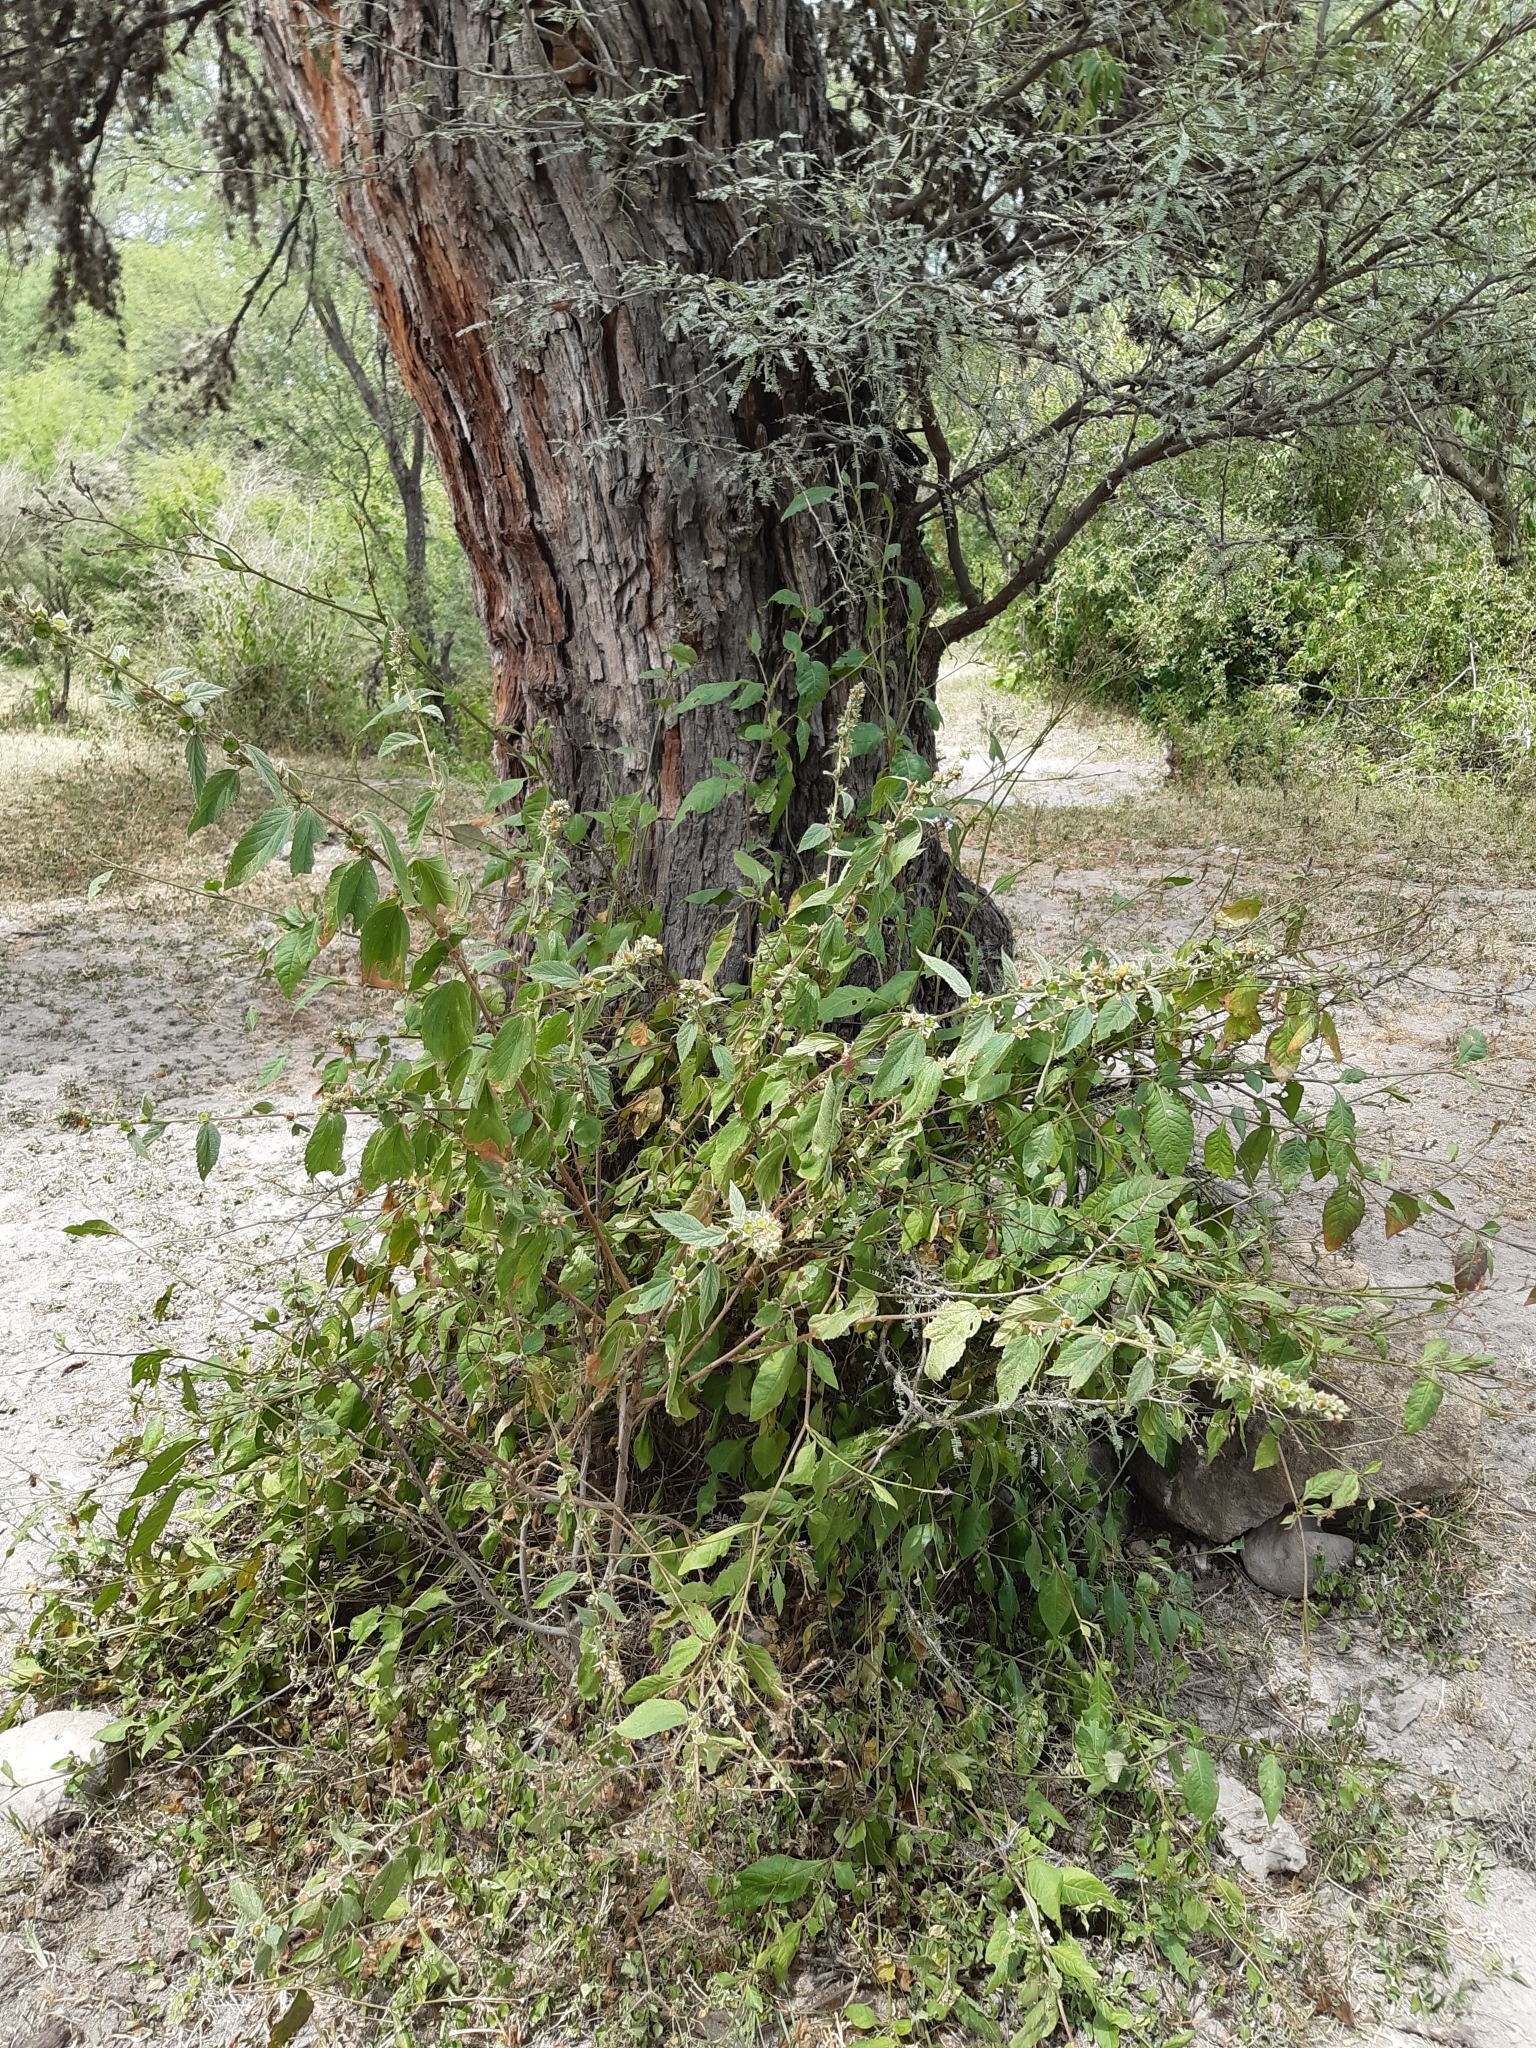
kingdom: Plantae
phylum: Tracheophyta
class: Magnoliopsida
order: Caryophyllales
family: Plumbaginaceae
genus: Plumbago
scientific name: Plumbago pulchella
